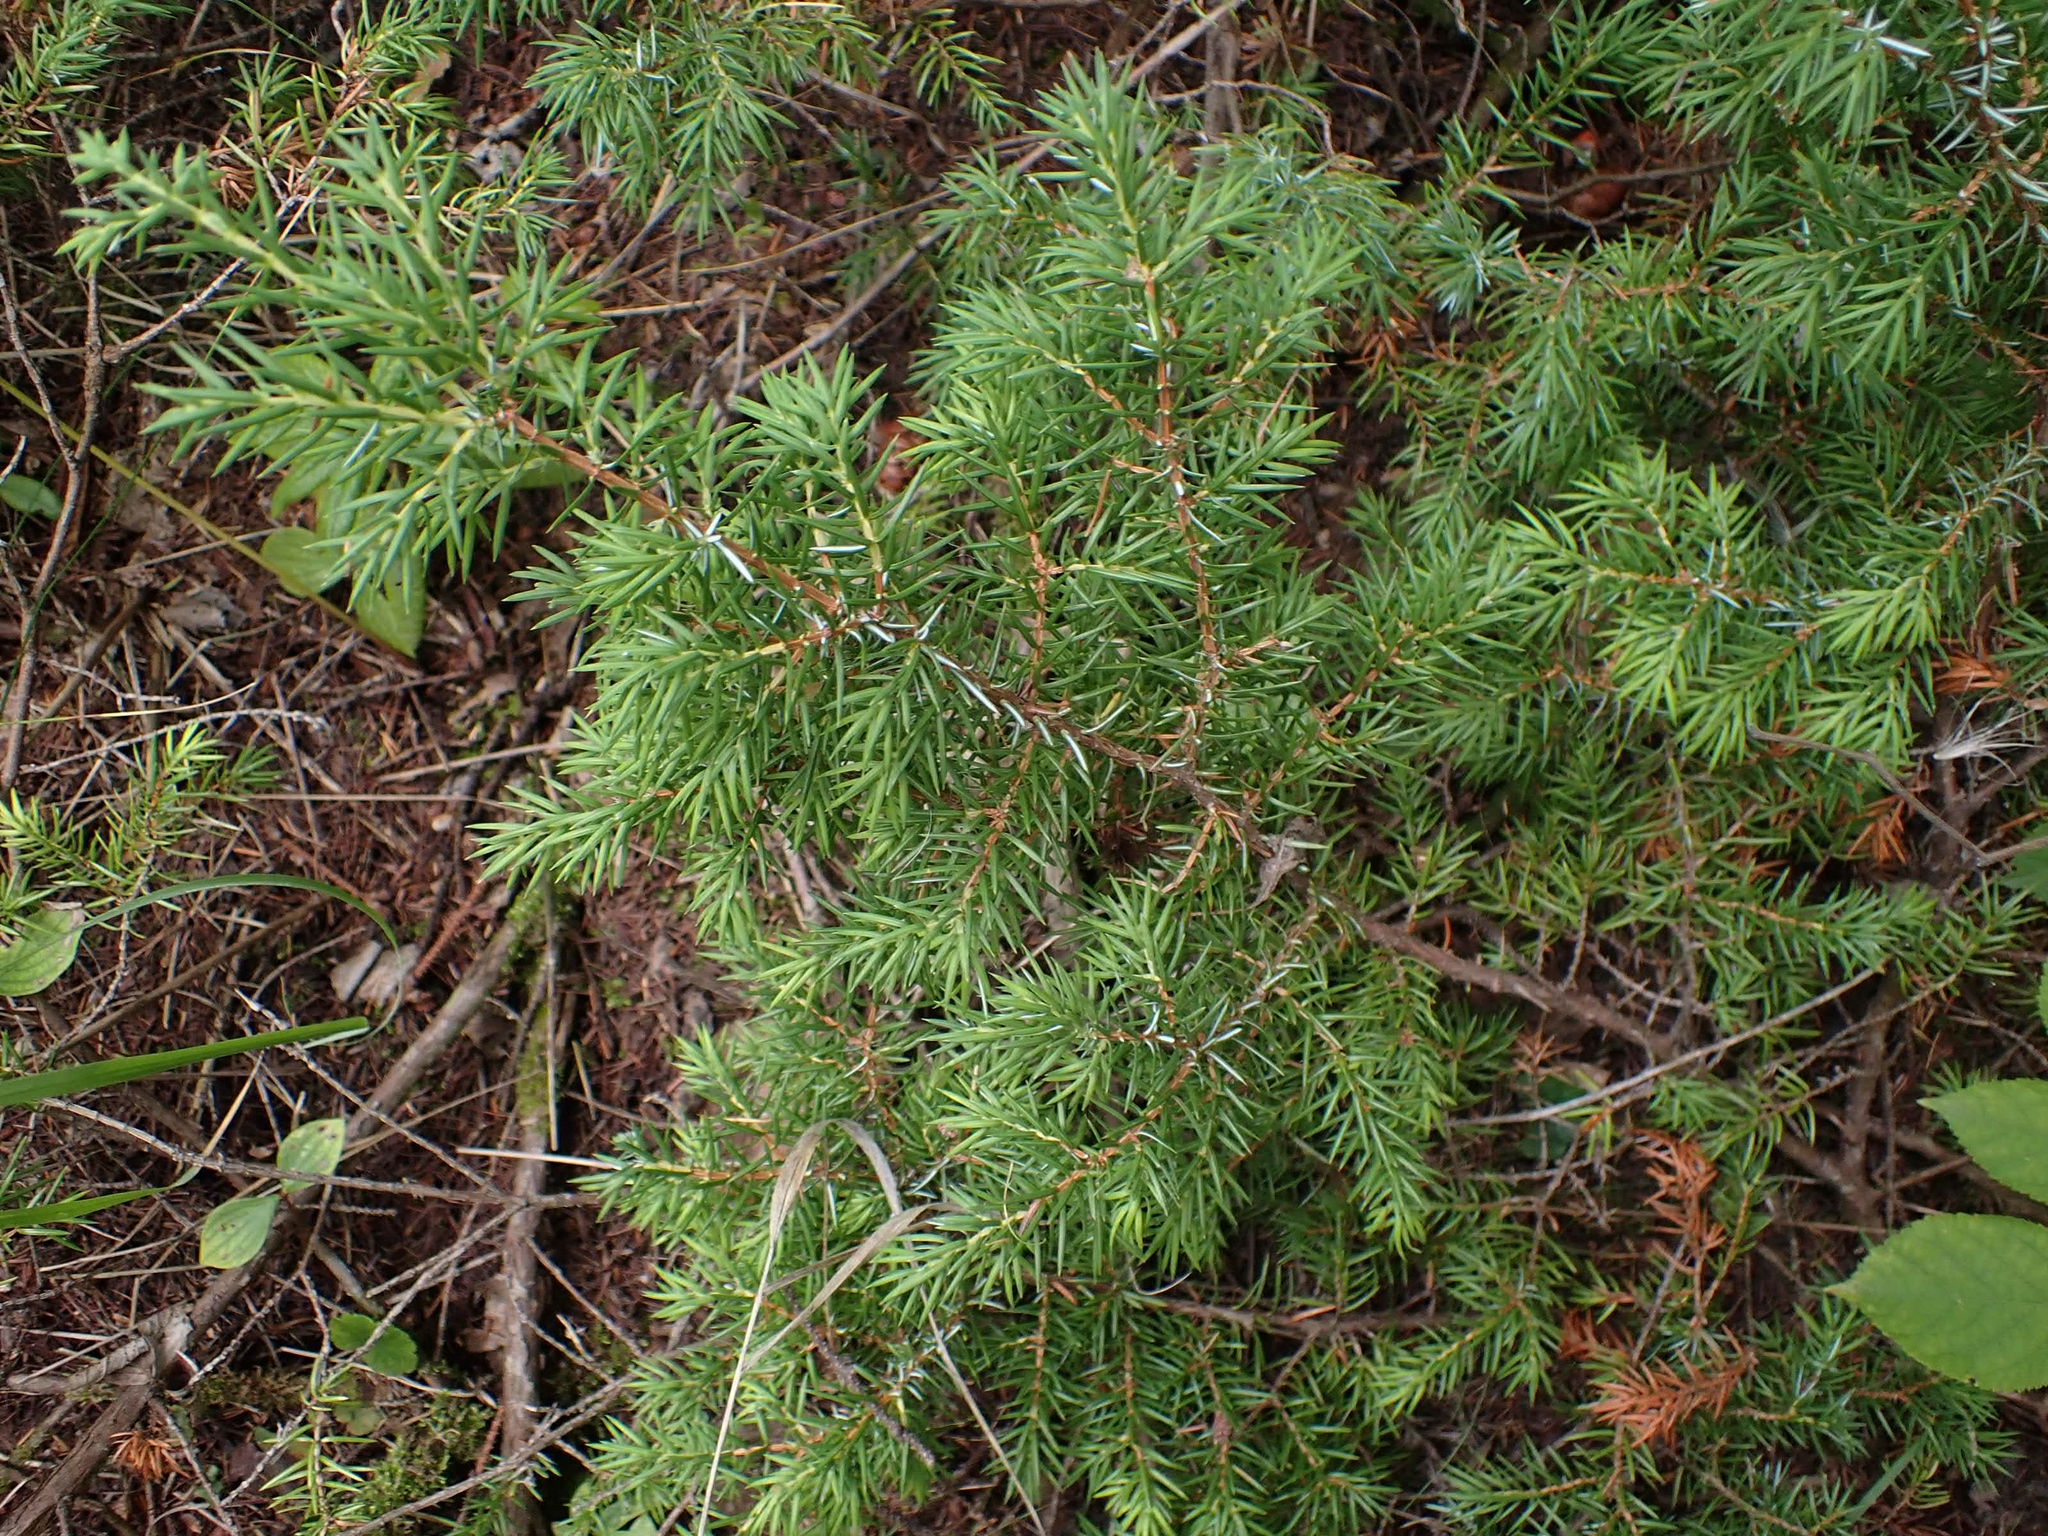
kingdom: Plantae
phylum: Tracheophyta
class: Pinopsida
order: Pinales
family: Cupressaceae
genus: Juniperus
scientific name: Juniperus communis
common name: Common juniper
